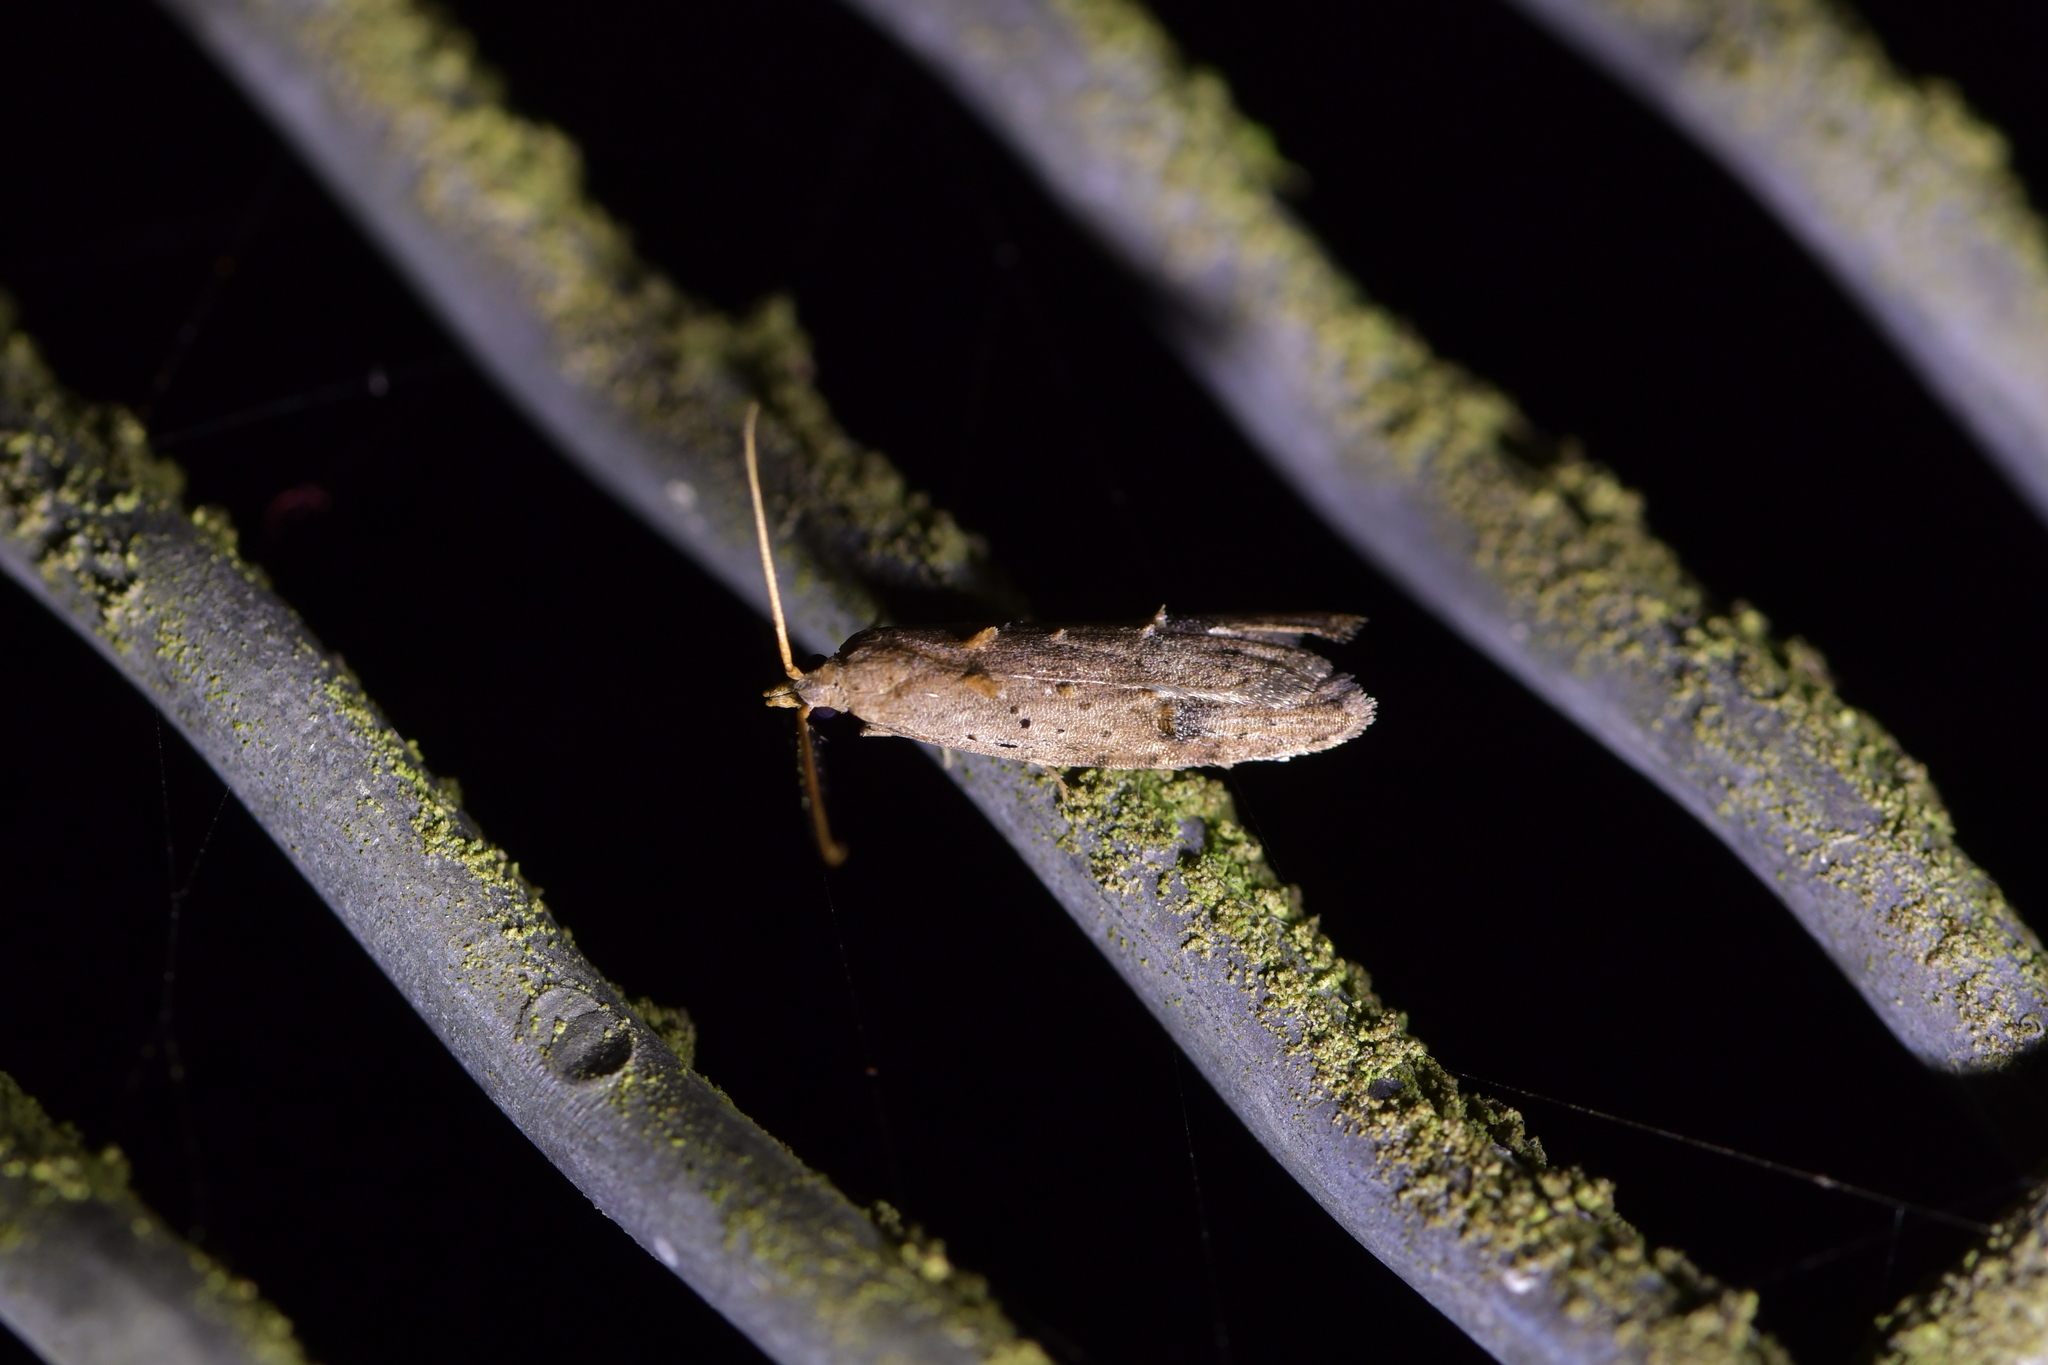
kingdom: Animalia
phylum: Arthropoda
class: Insecta
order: Lepidoptera
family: Carposinidae
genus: Carposina
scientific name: Carposina rubophaga
